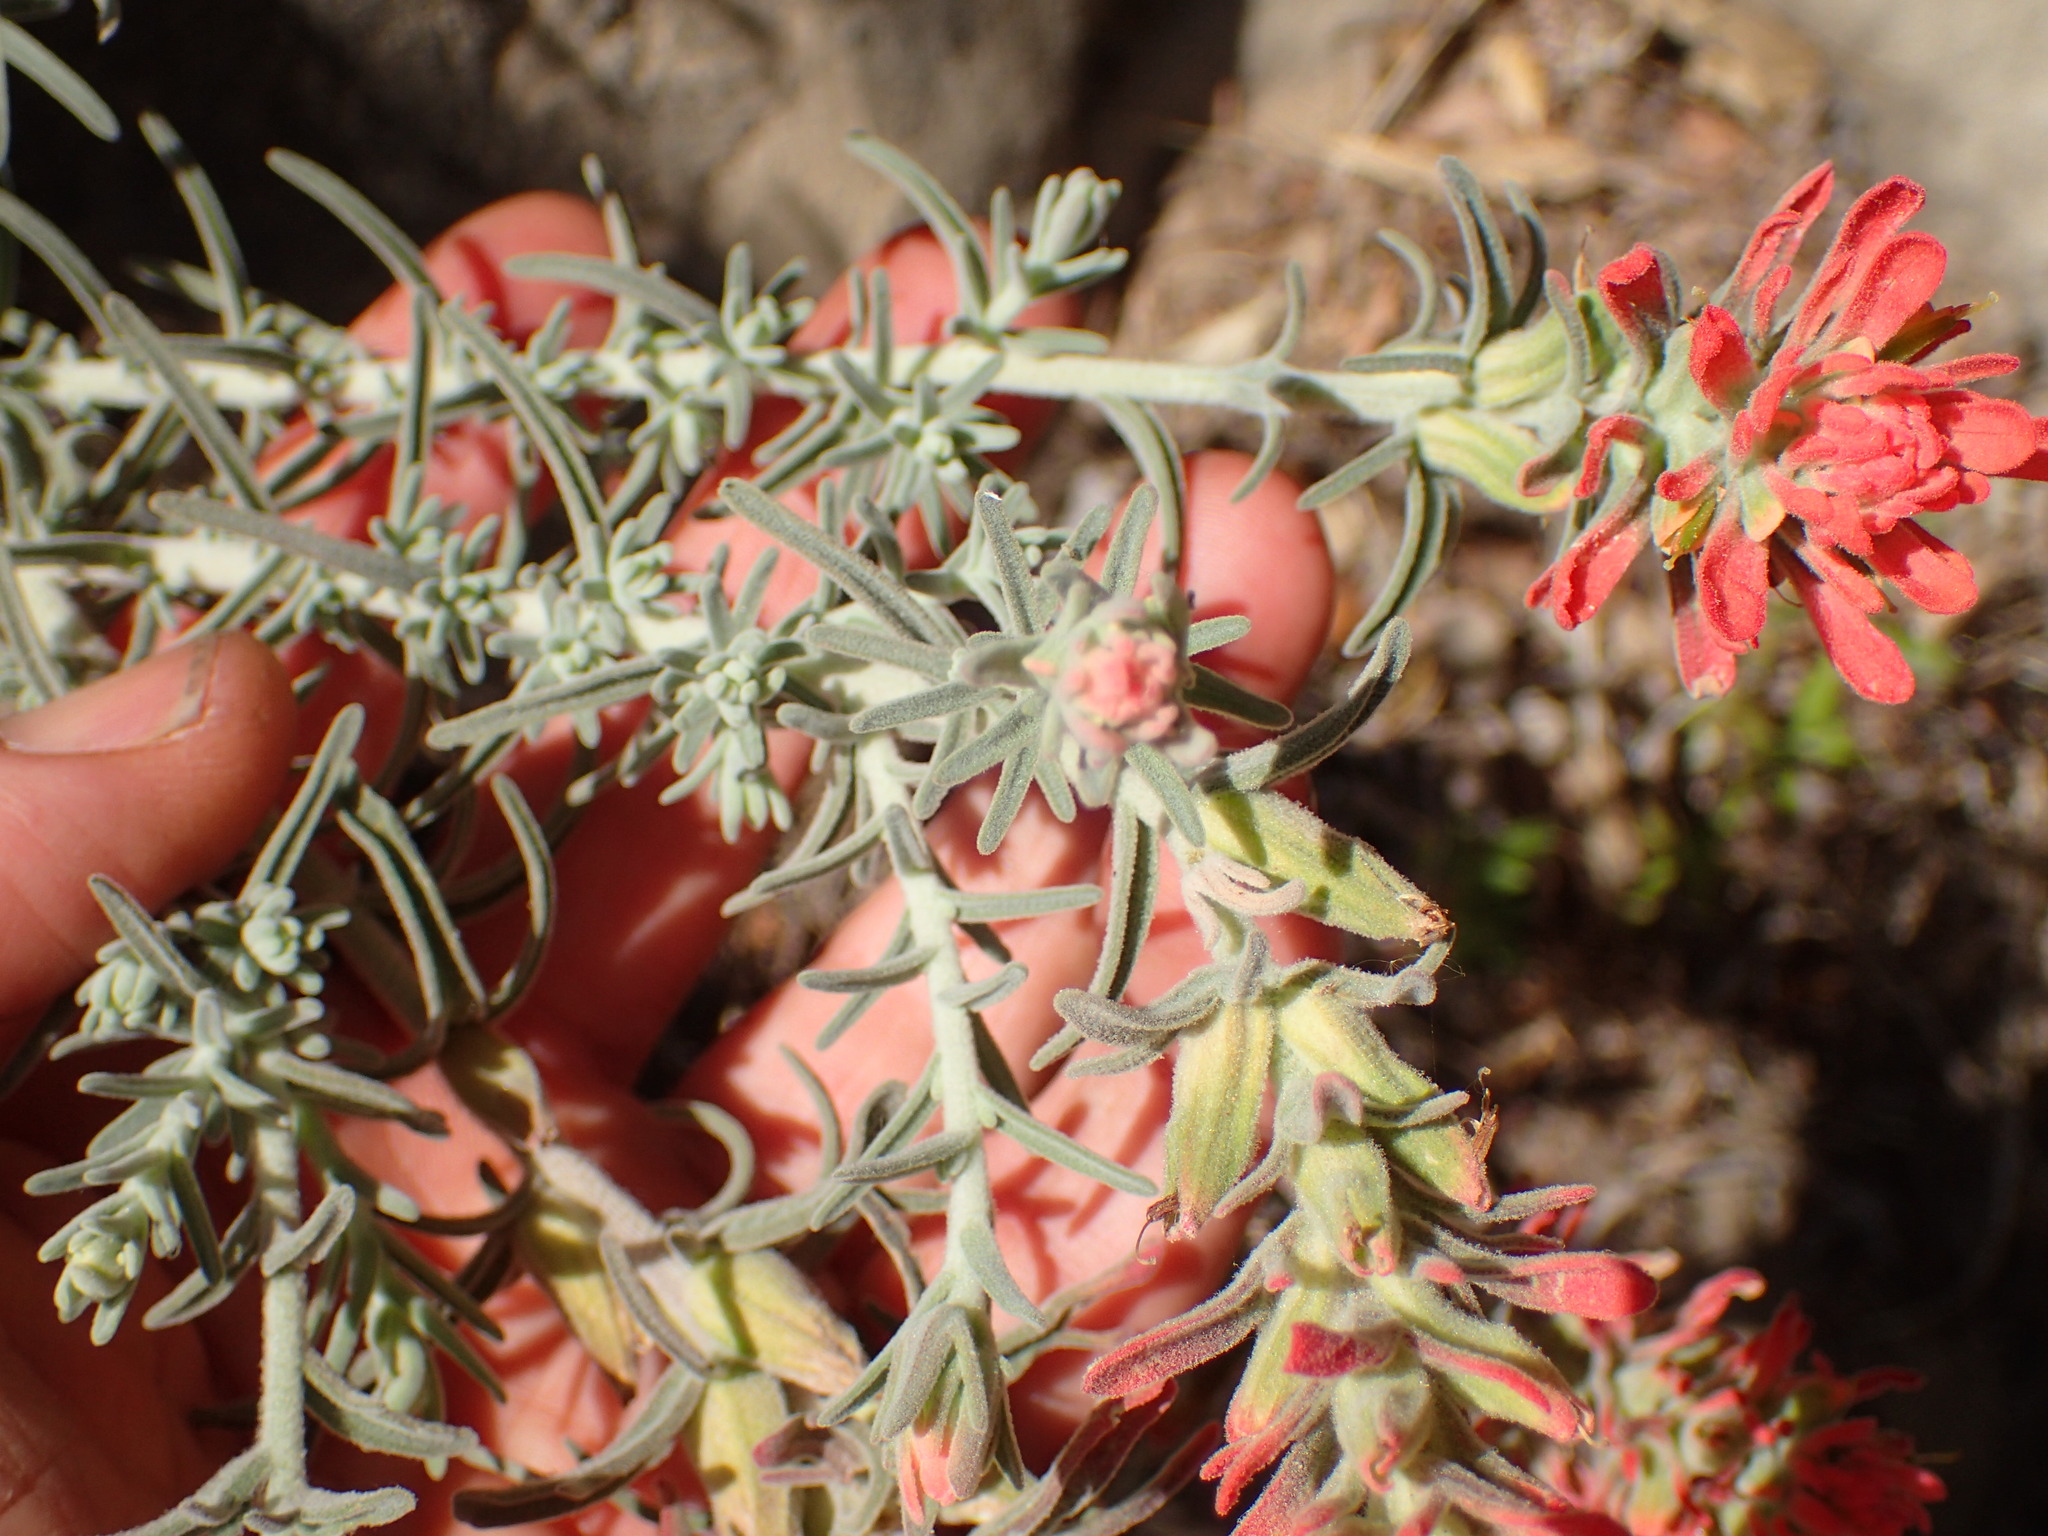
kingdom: Plantae
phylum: Tracheophyta
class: Magnoliopsida
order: Lamiales
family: Orobanchaceae
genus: Castilleja
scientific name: Castilleja foliolosa
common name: Woolly indian paintbrush
